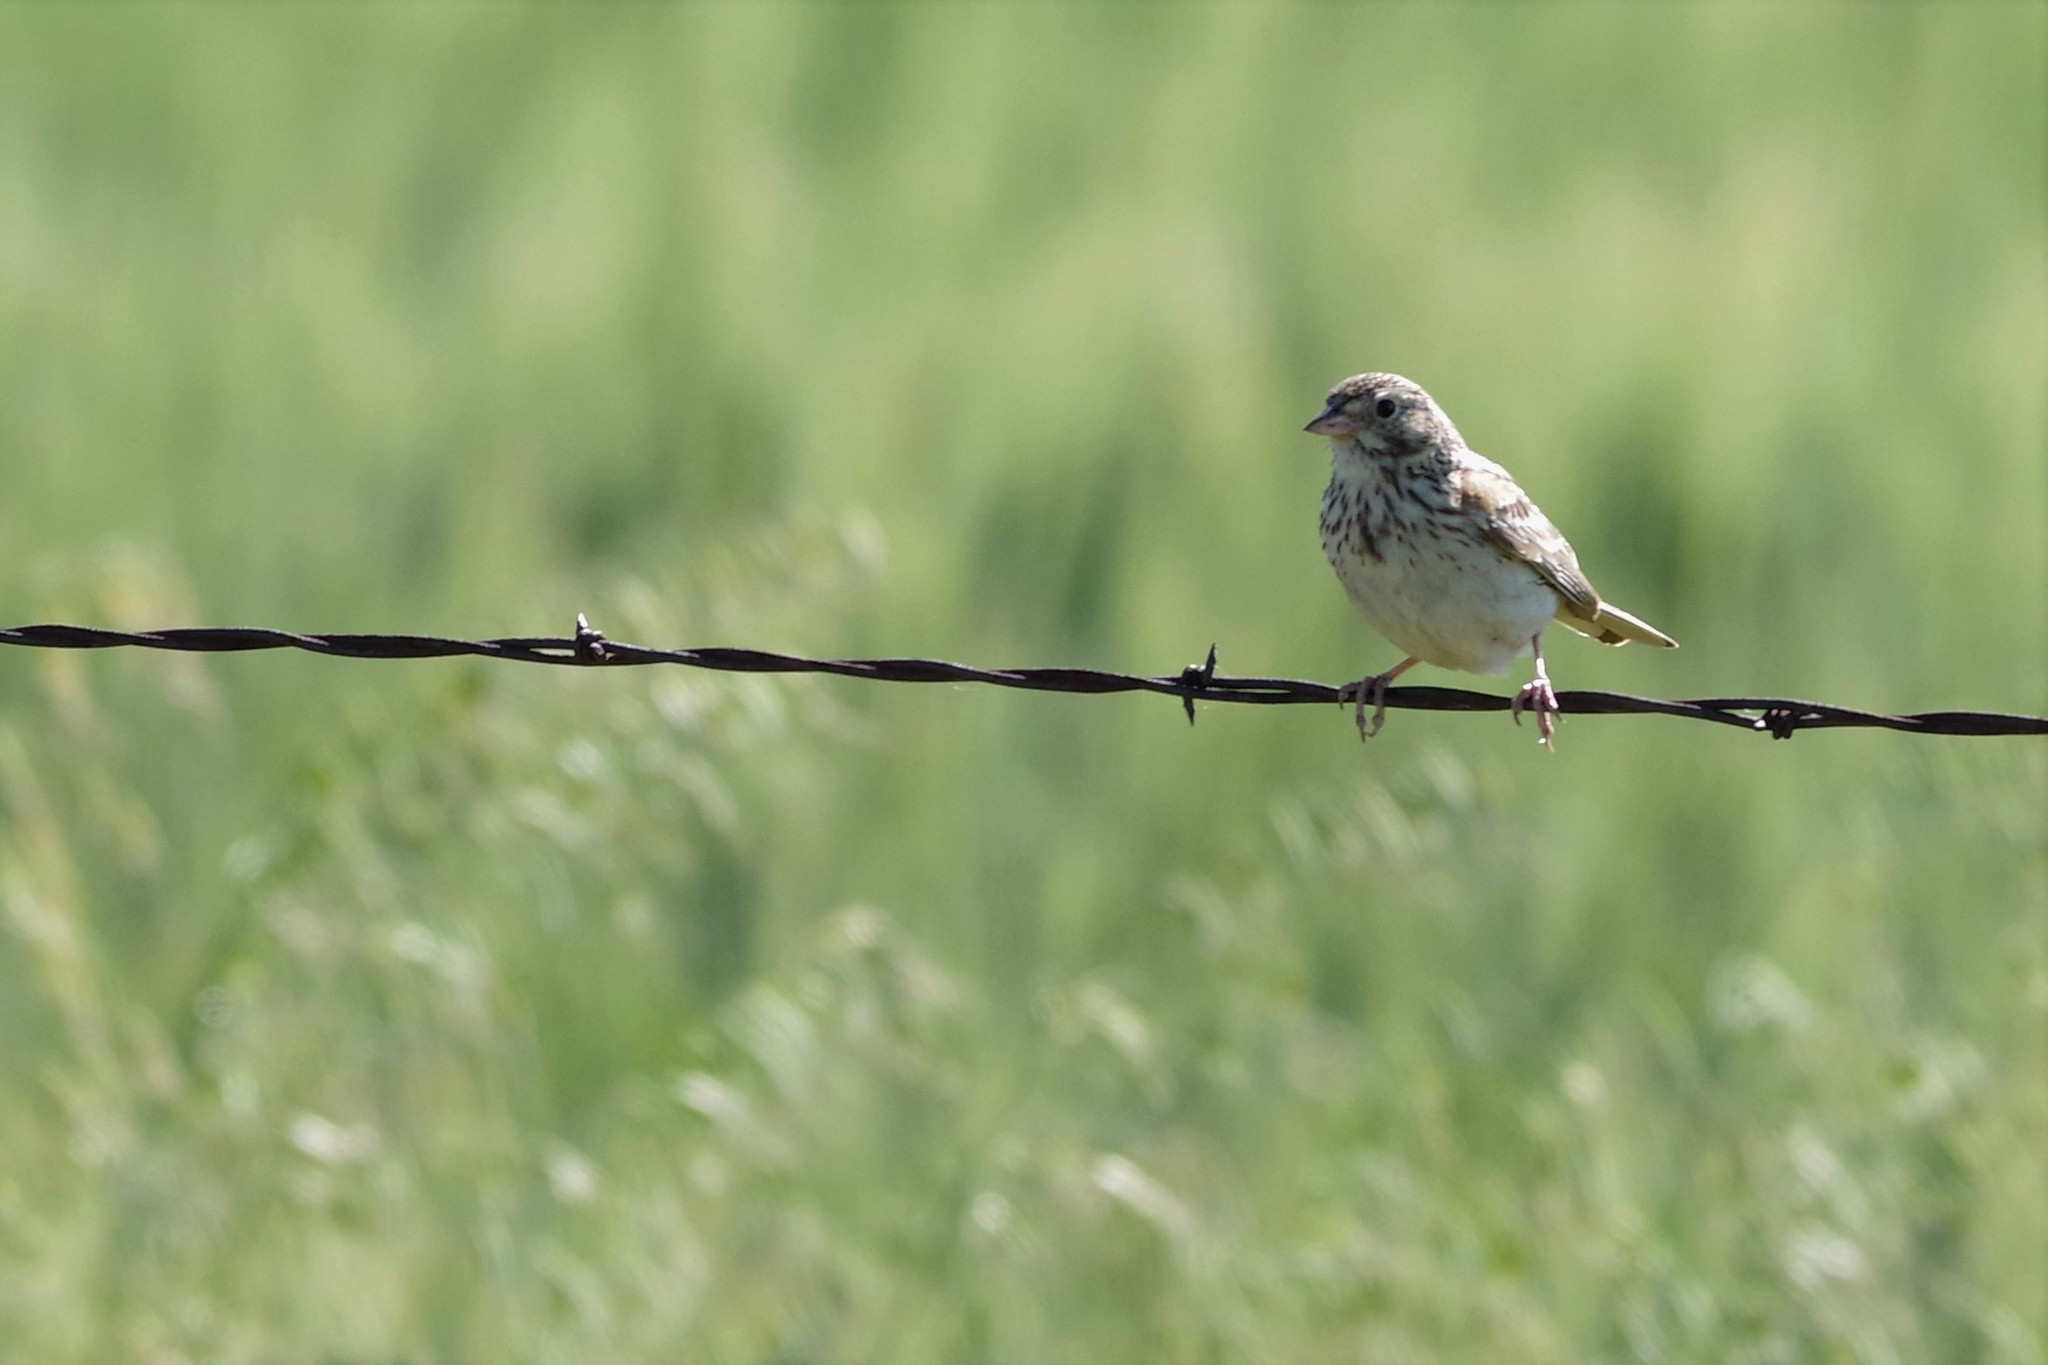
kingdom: Animalia
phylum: Chordata
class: Aves
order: Passeriformes
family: Passerellidae
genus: Pooecetes
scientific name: Pooecetes gramineus
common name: Vesper sparrow
